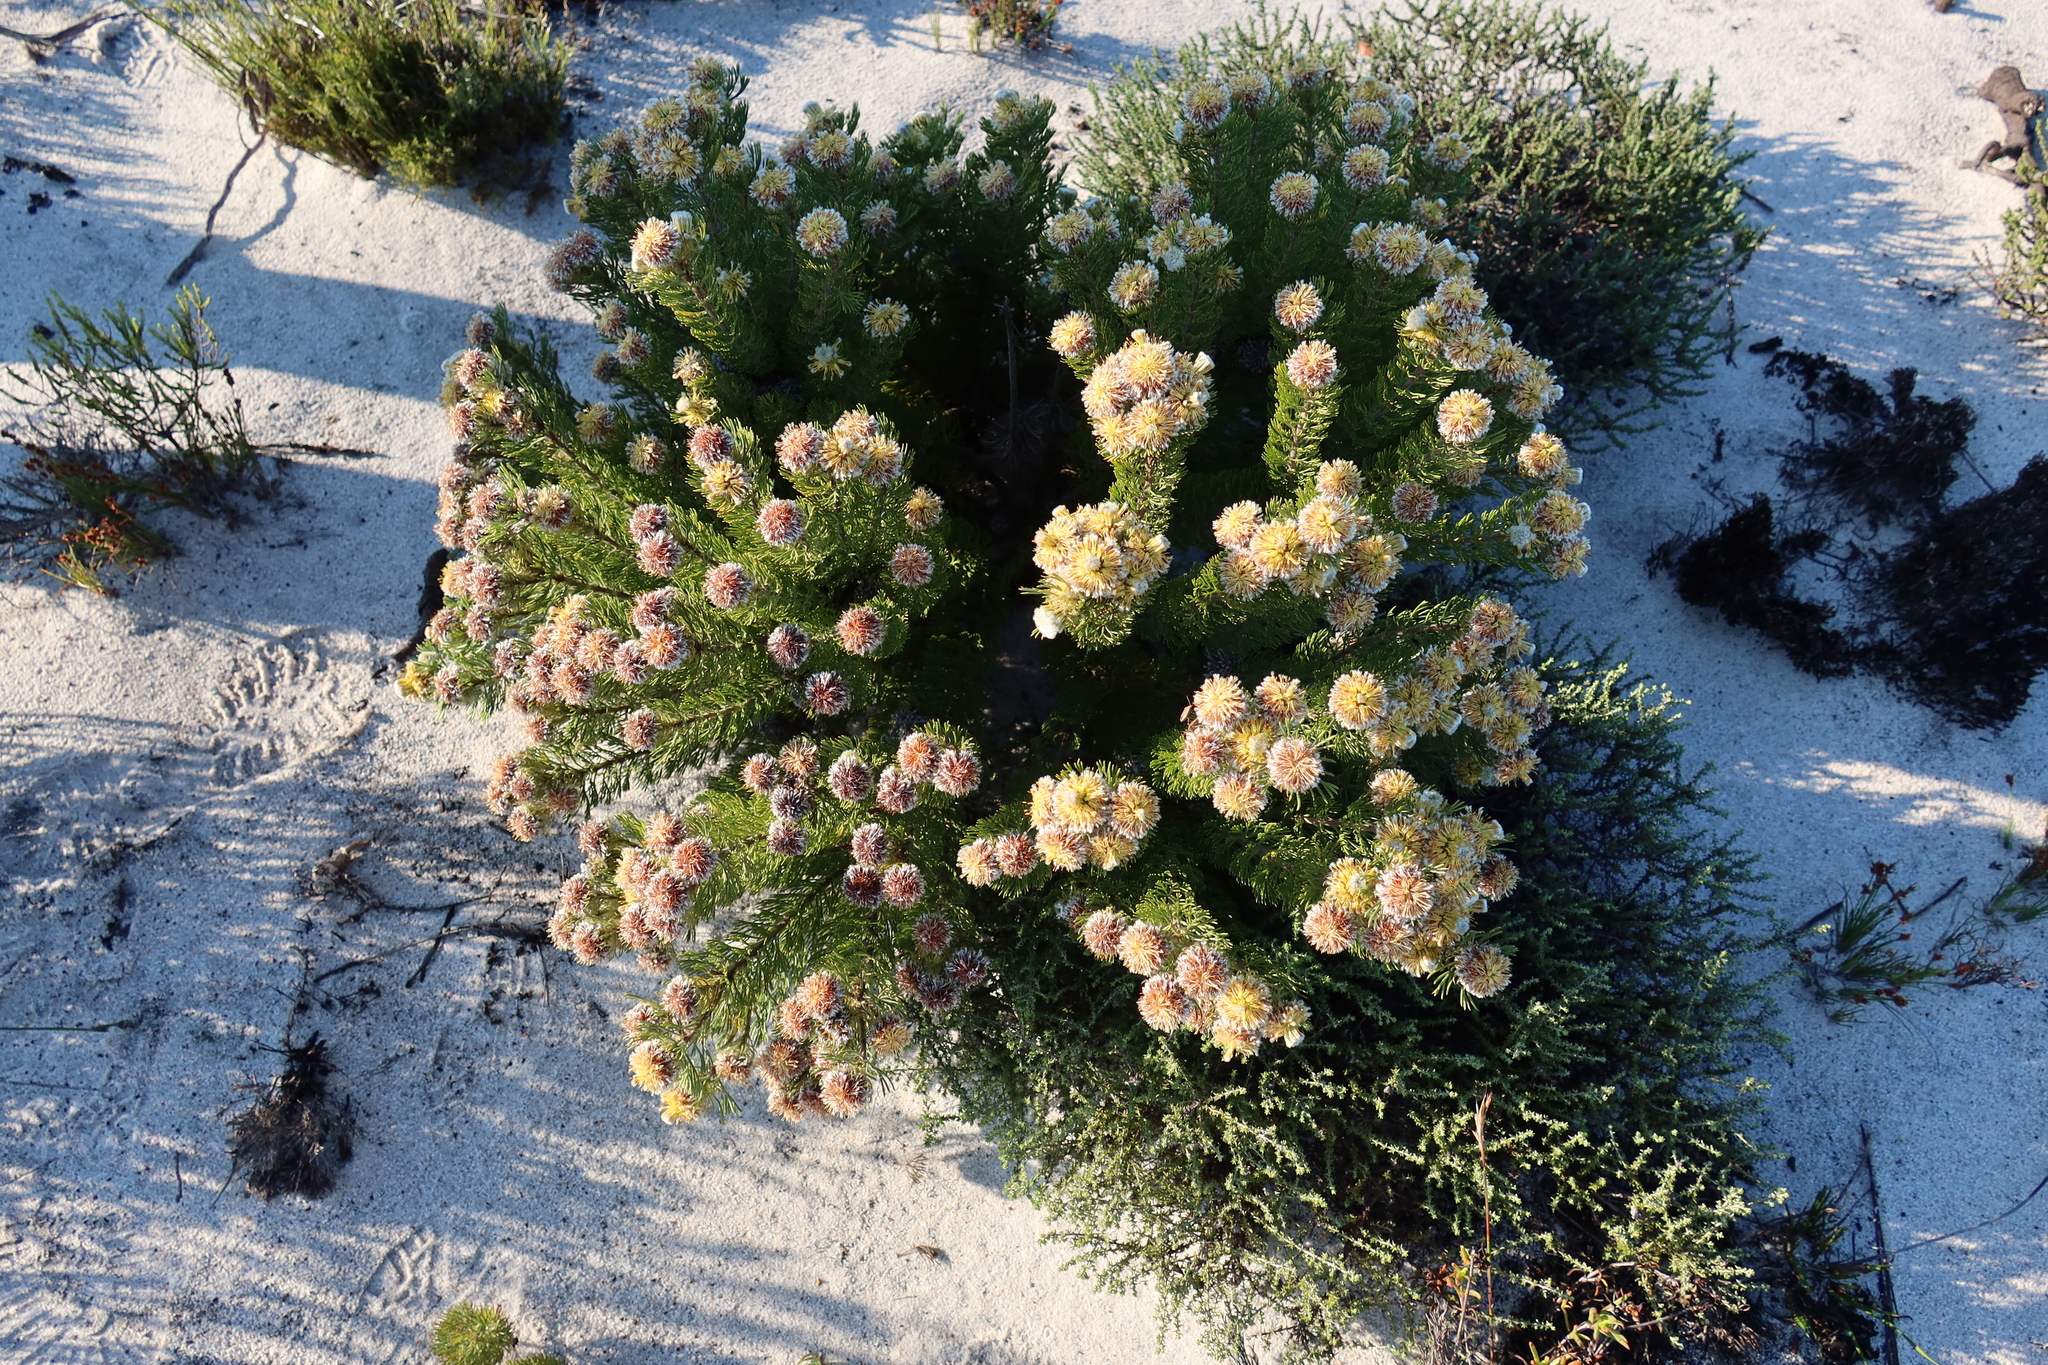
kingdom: Plantae
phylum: Tracheophyta
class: Magnoliopsida
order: Proteales
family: Proteaceae
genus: Serruria
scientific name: Serruria
